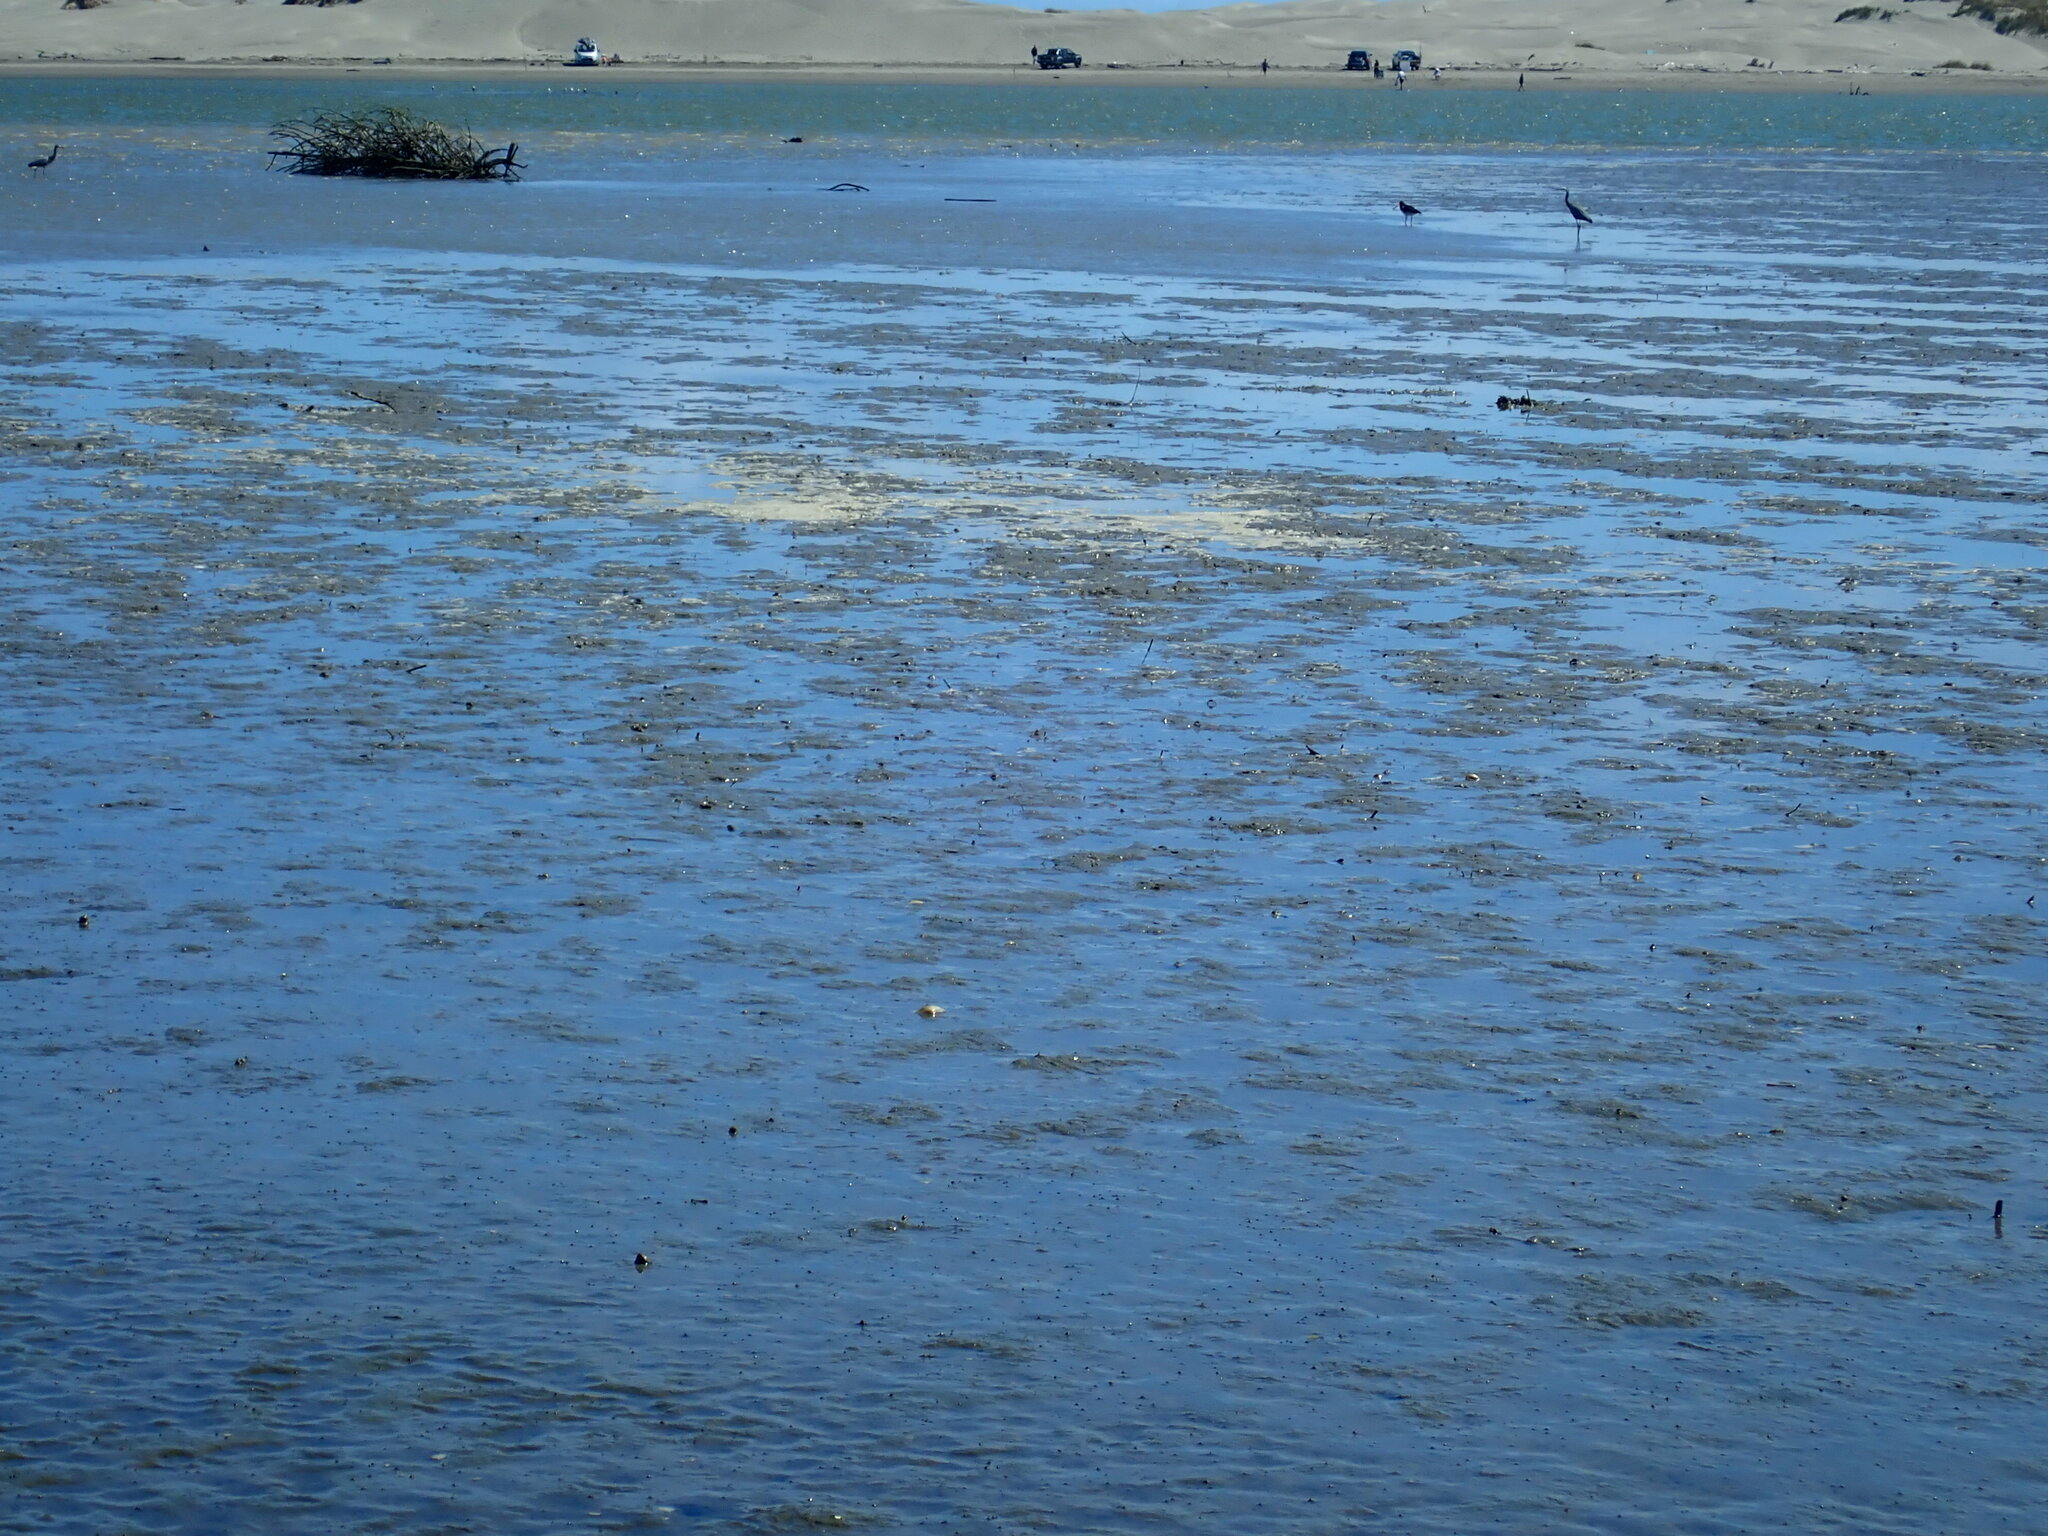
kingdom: Animalia
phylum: Chordata
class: Aves
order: Pelecaniformes
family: Ardeidae
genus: Egretta
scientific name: Egretta novaehollandiae
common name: White-faced heron
